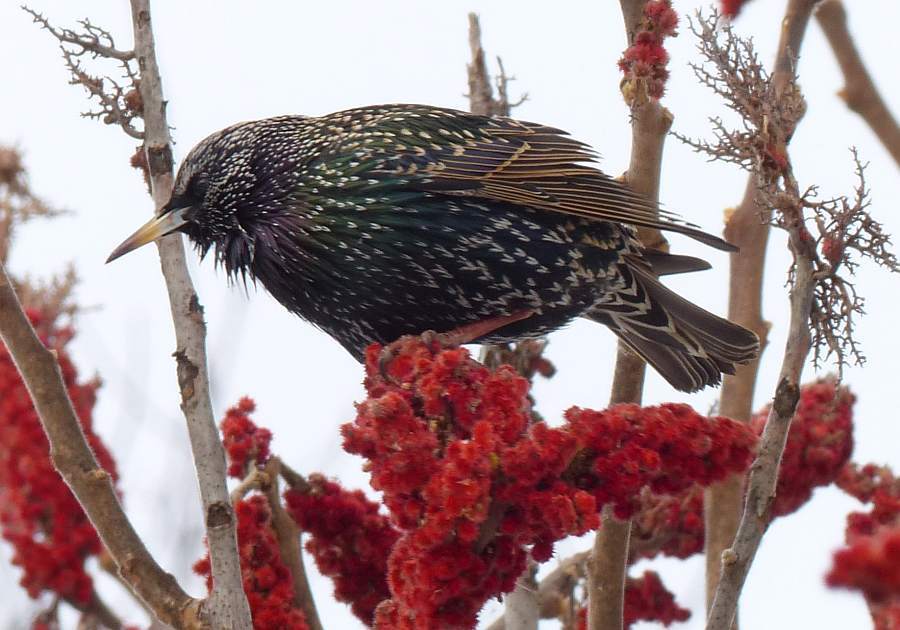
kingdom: Animalia
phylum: Chordata
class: Aves
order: Passeriformes
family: Sturnidae
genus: Sturnus
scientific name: Sturnus vulgaris
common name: Common starling
